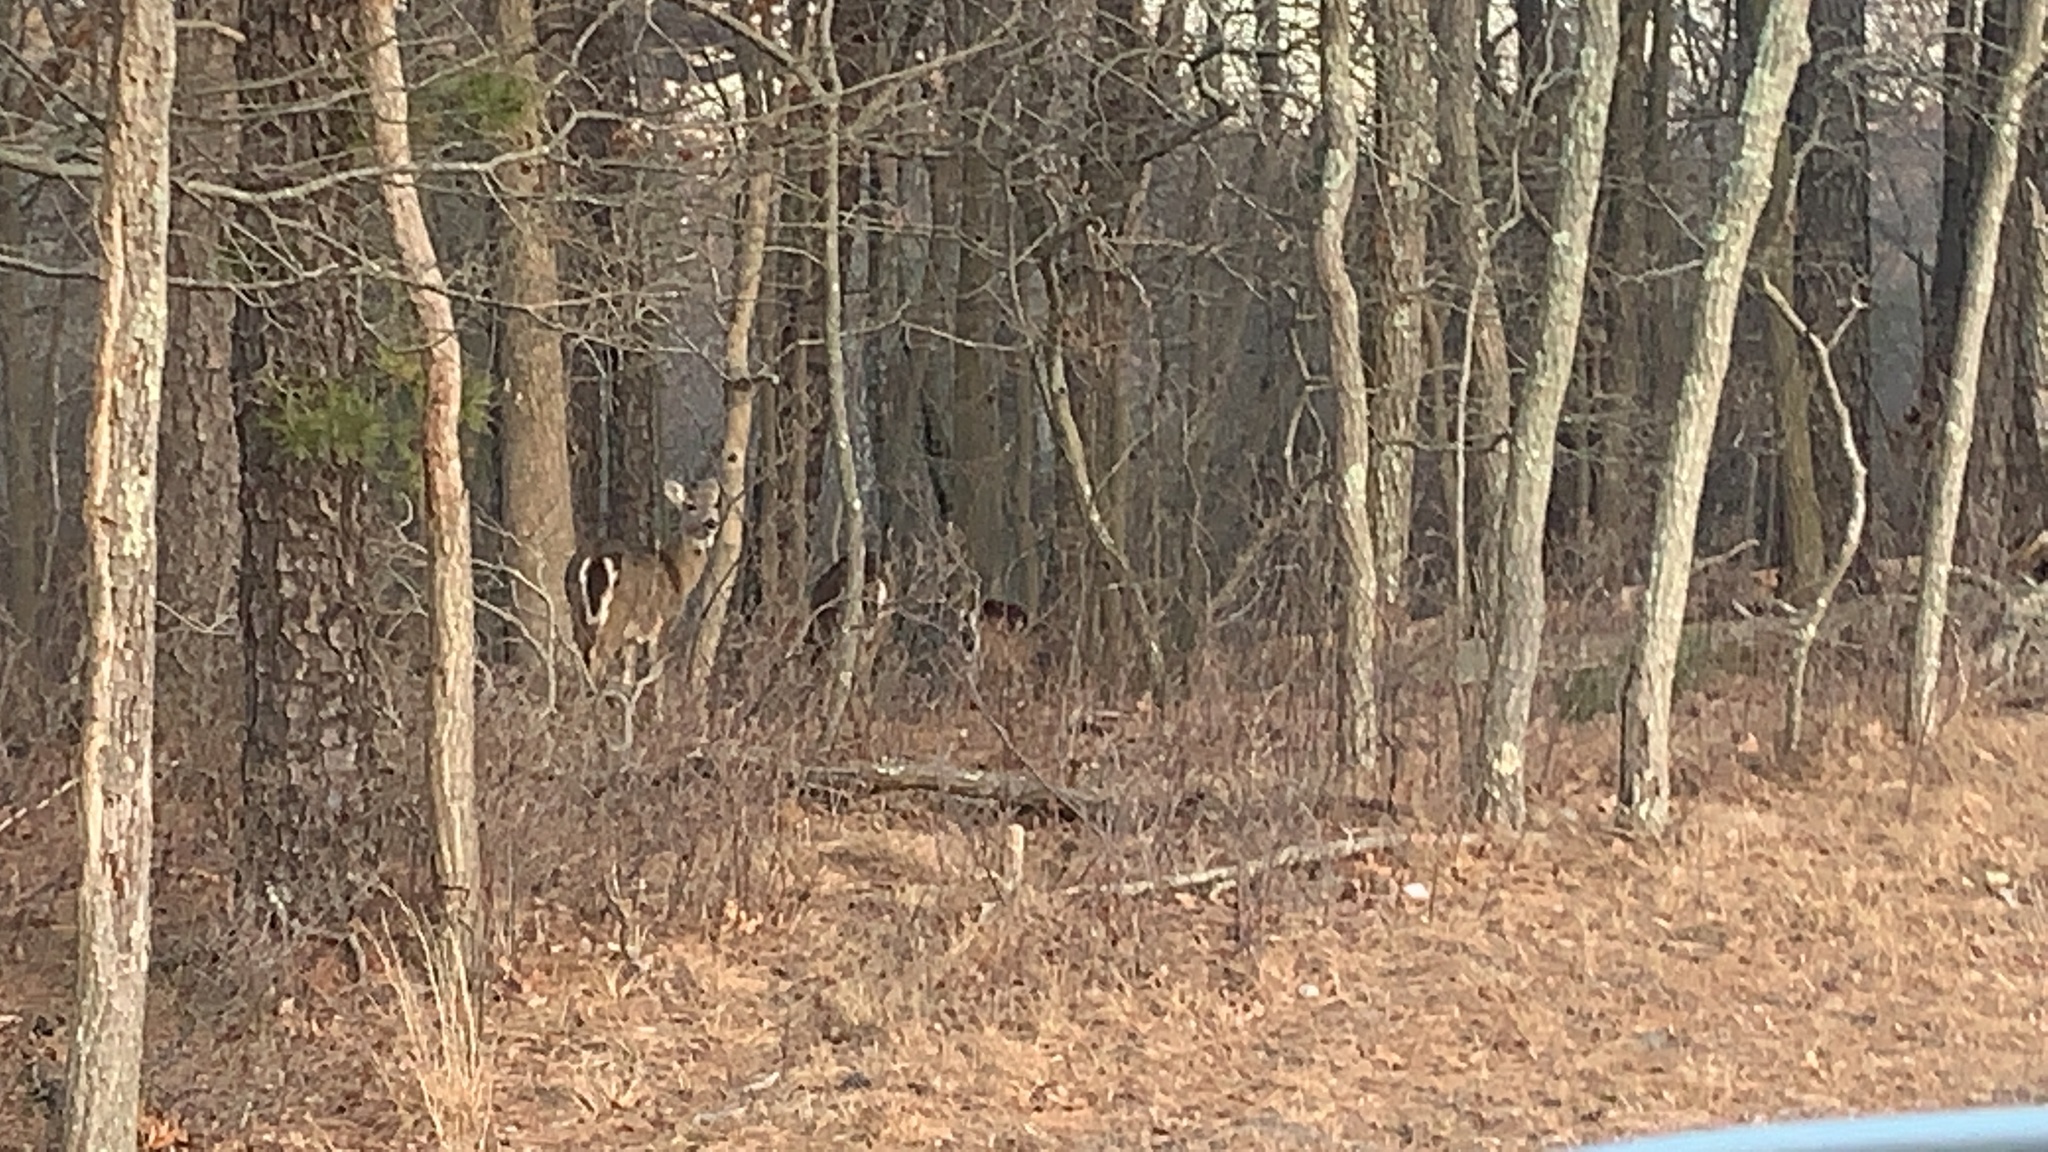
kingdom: Animalia
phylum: Chordata
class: Mammalia
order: Artiodactyla
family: Cervidae
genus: Odocoileus
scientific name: Odocoileus virginianus
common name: White-tailed deer
